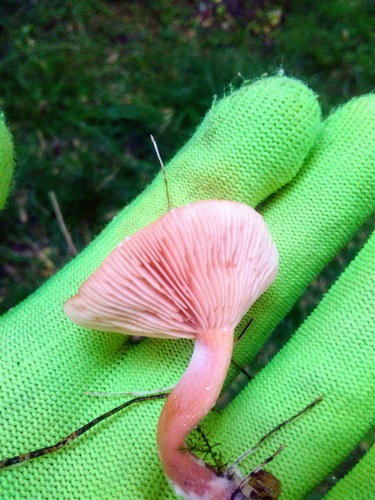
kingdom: Fungi
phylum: Basidiomycota
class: Agaricomycetes
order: Russulales
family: Russulaceae
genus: Lactarius
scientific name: Lactarius
